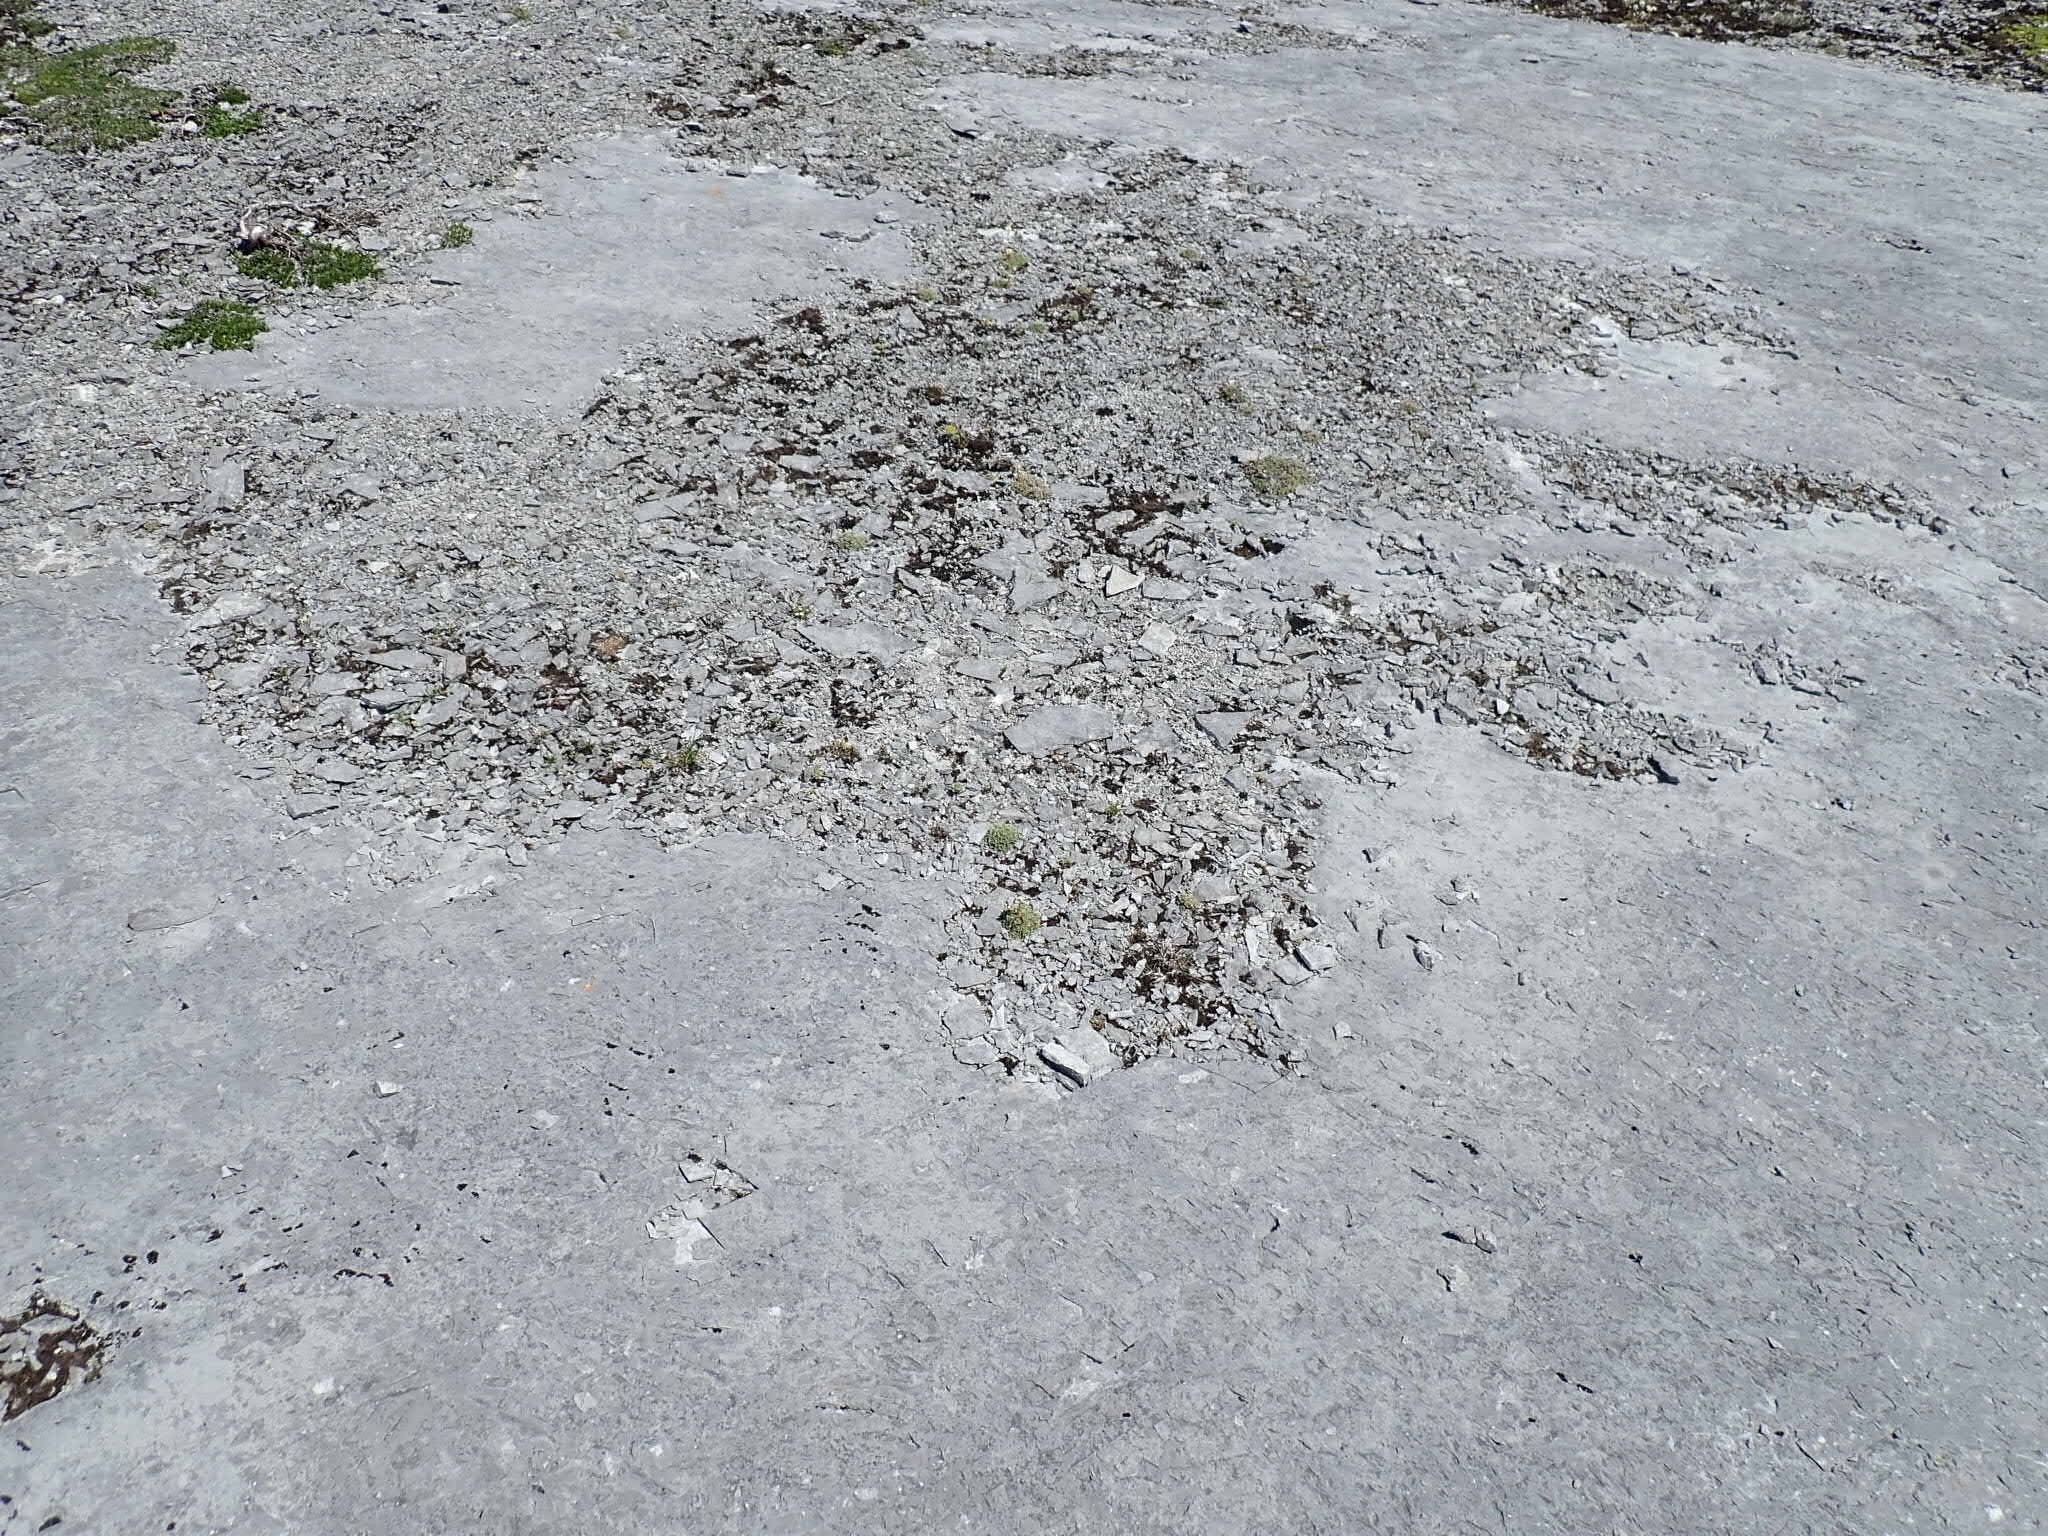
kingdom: Plantae
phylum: Tracheophyta
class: Magnoliopsida
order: Saxifragales
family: Saxifragaceae
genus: Saxifraga
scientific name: Saxifraga paniculata
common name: Livelong saxifrage
